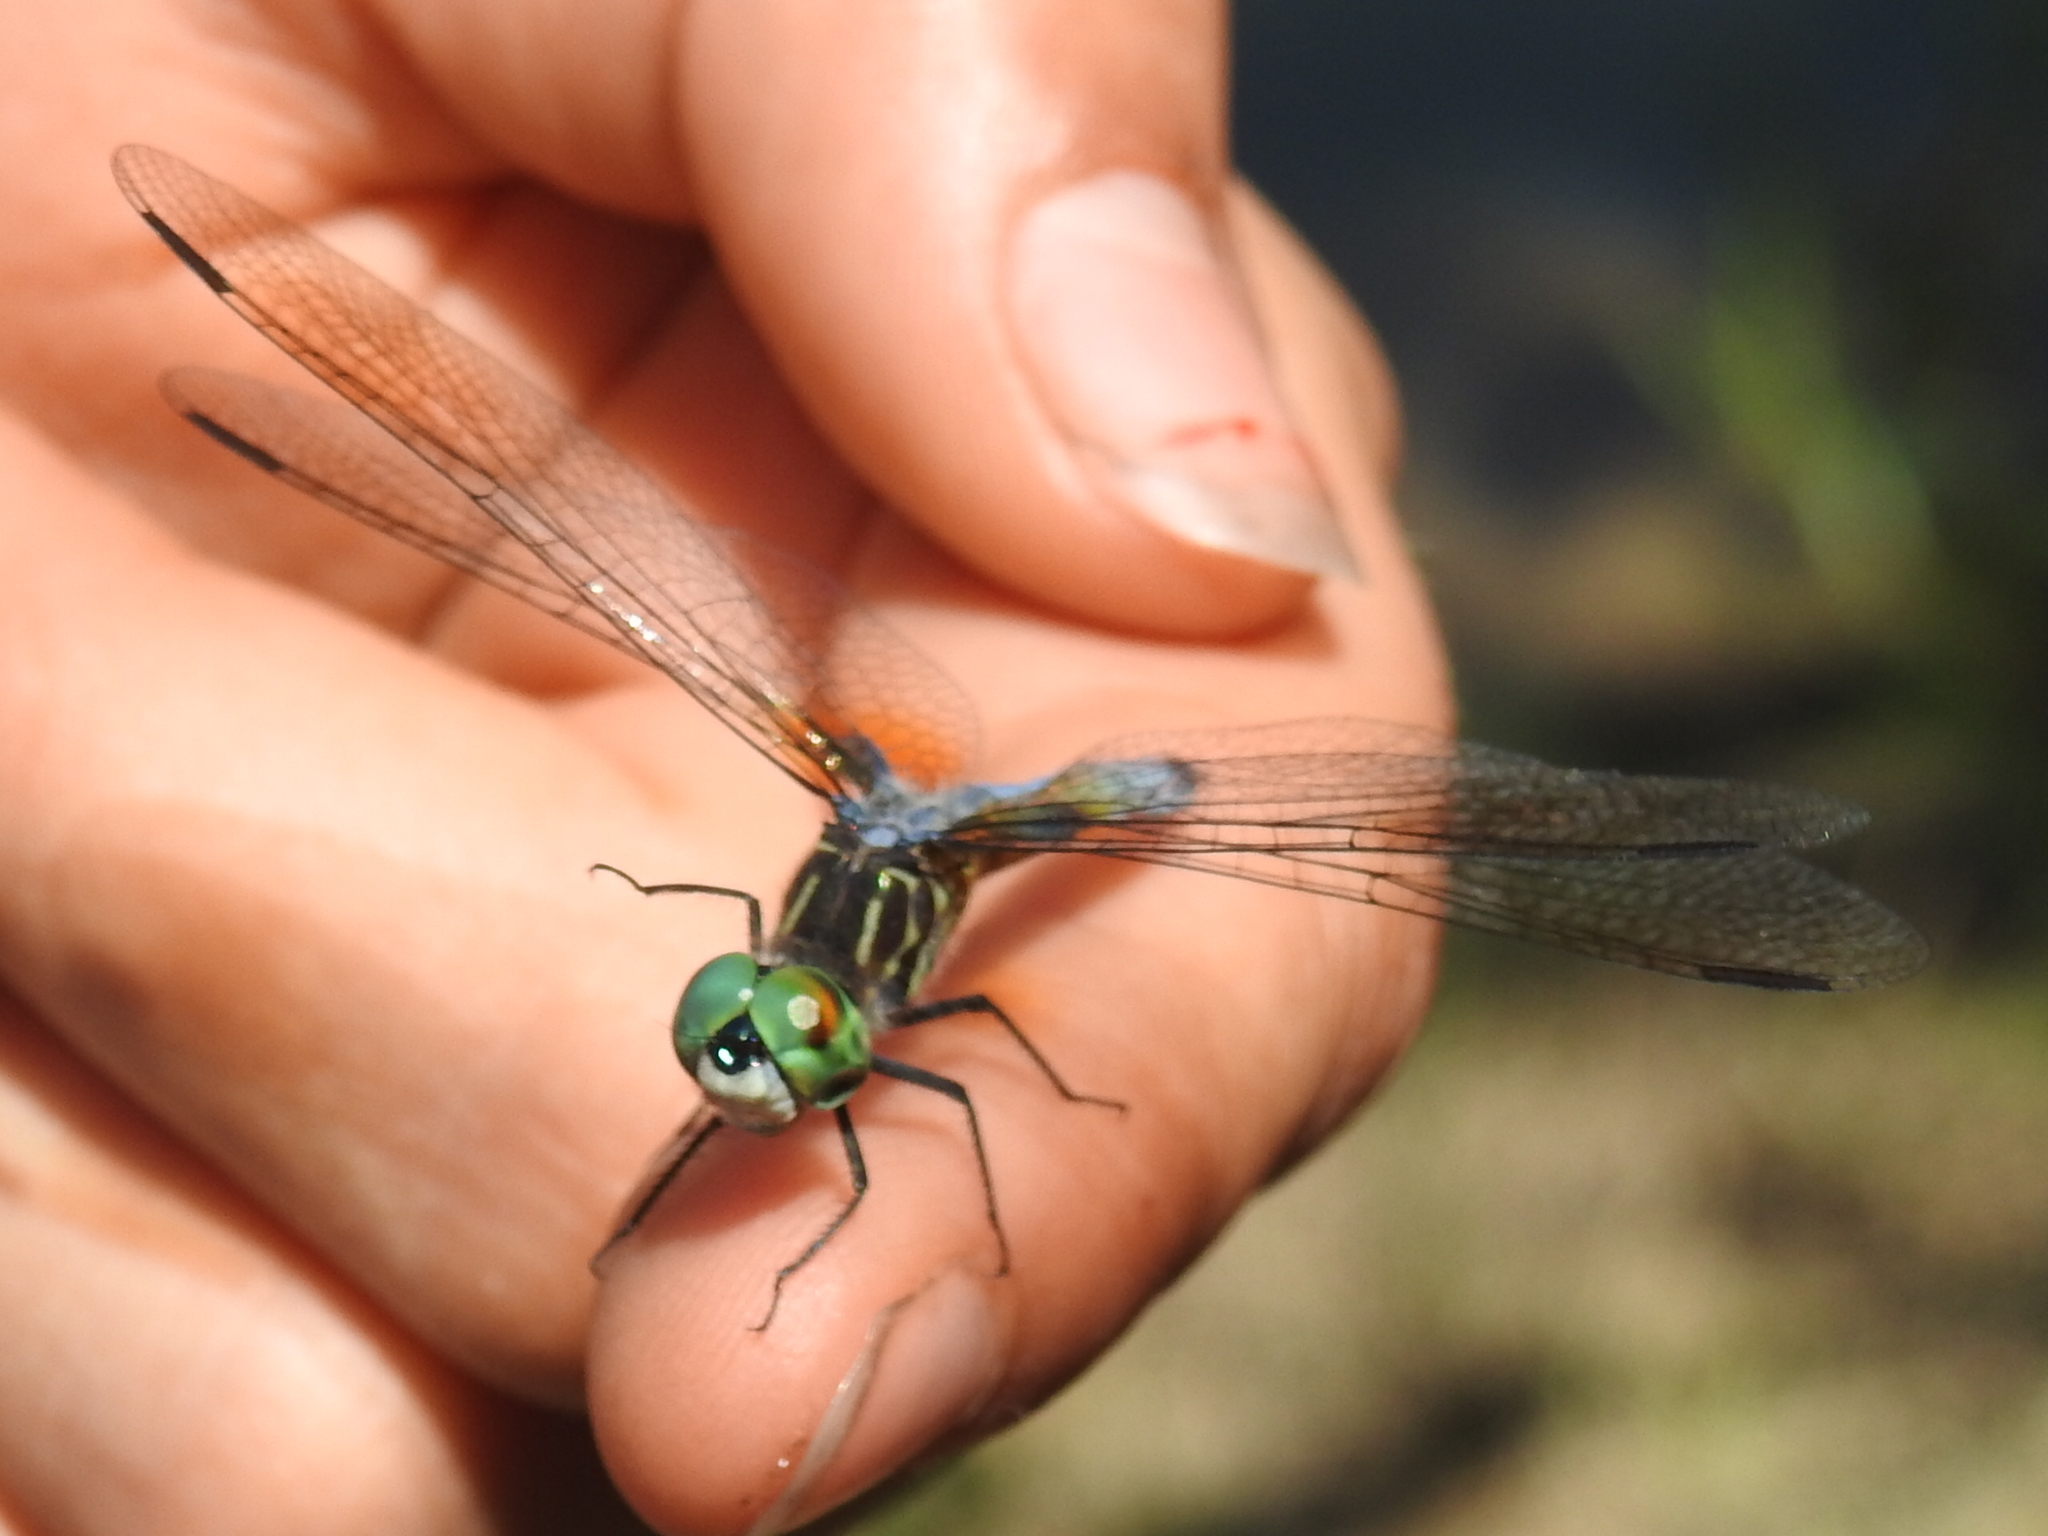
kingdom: Animalia
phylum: Arthropoda
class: Insecta
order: Odonata
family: Libellulidae
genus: Pachydiplax
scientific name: Pachydiplax longipennis
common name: Blue dasher
